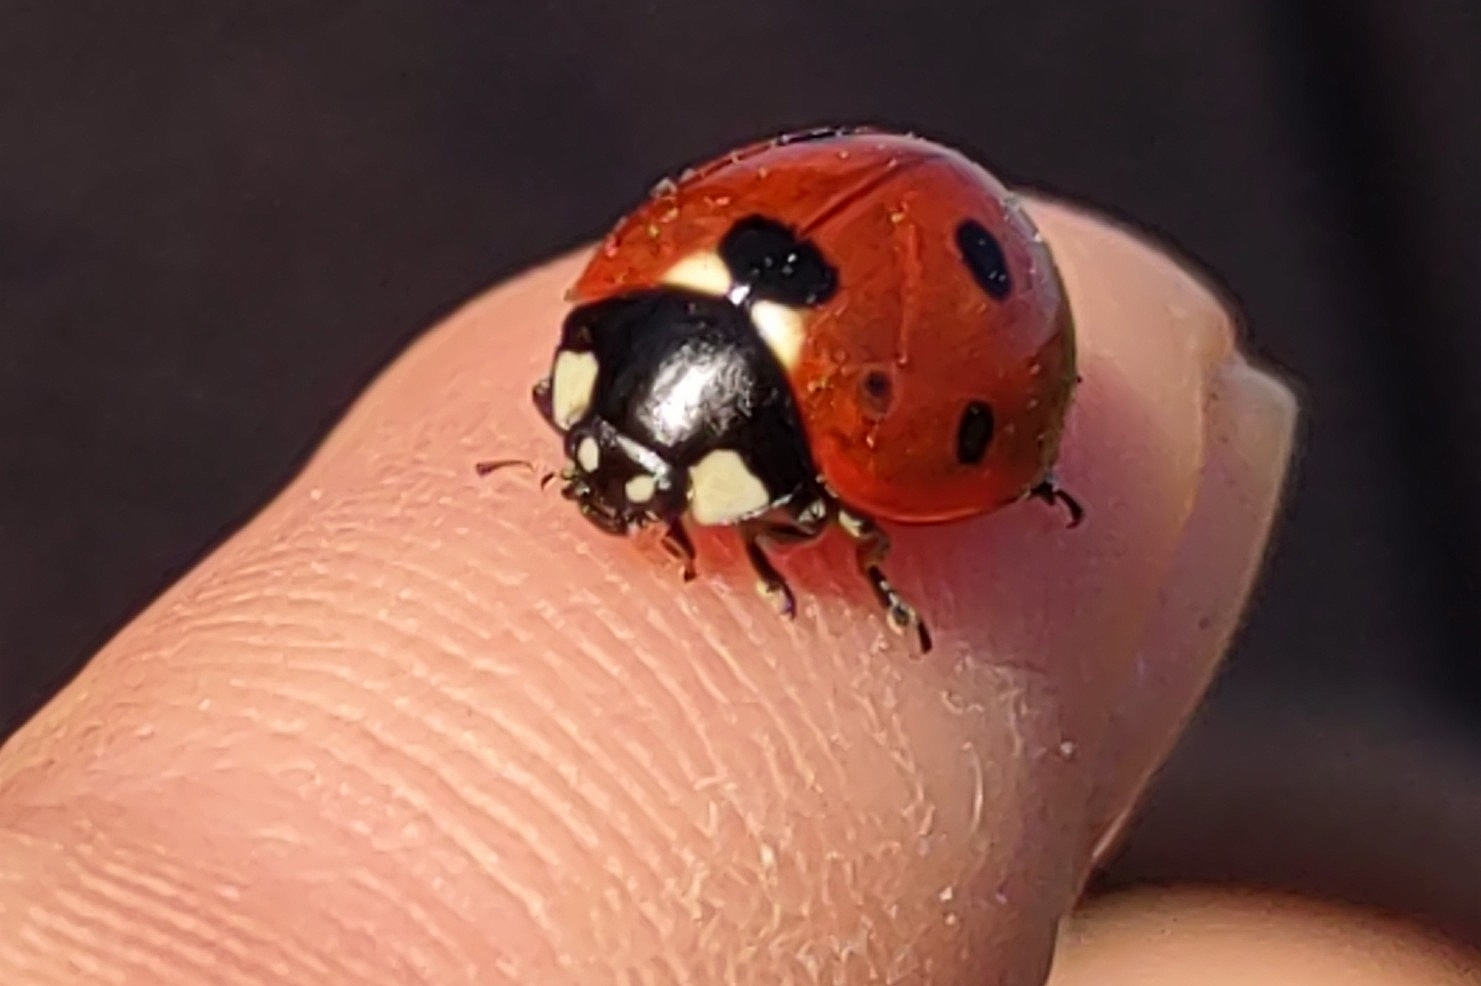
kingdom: Animalia
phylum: Arthropoda
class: Insecta
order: Coleoptera
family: Coccinellidae
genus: Coccinella
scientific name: Coccinella septempunctata
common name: Sevenspotted lady beetle
